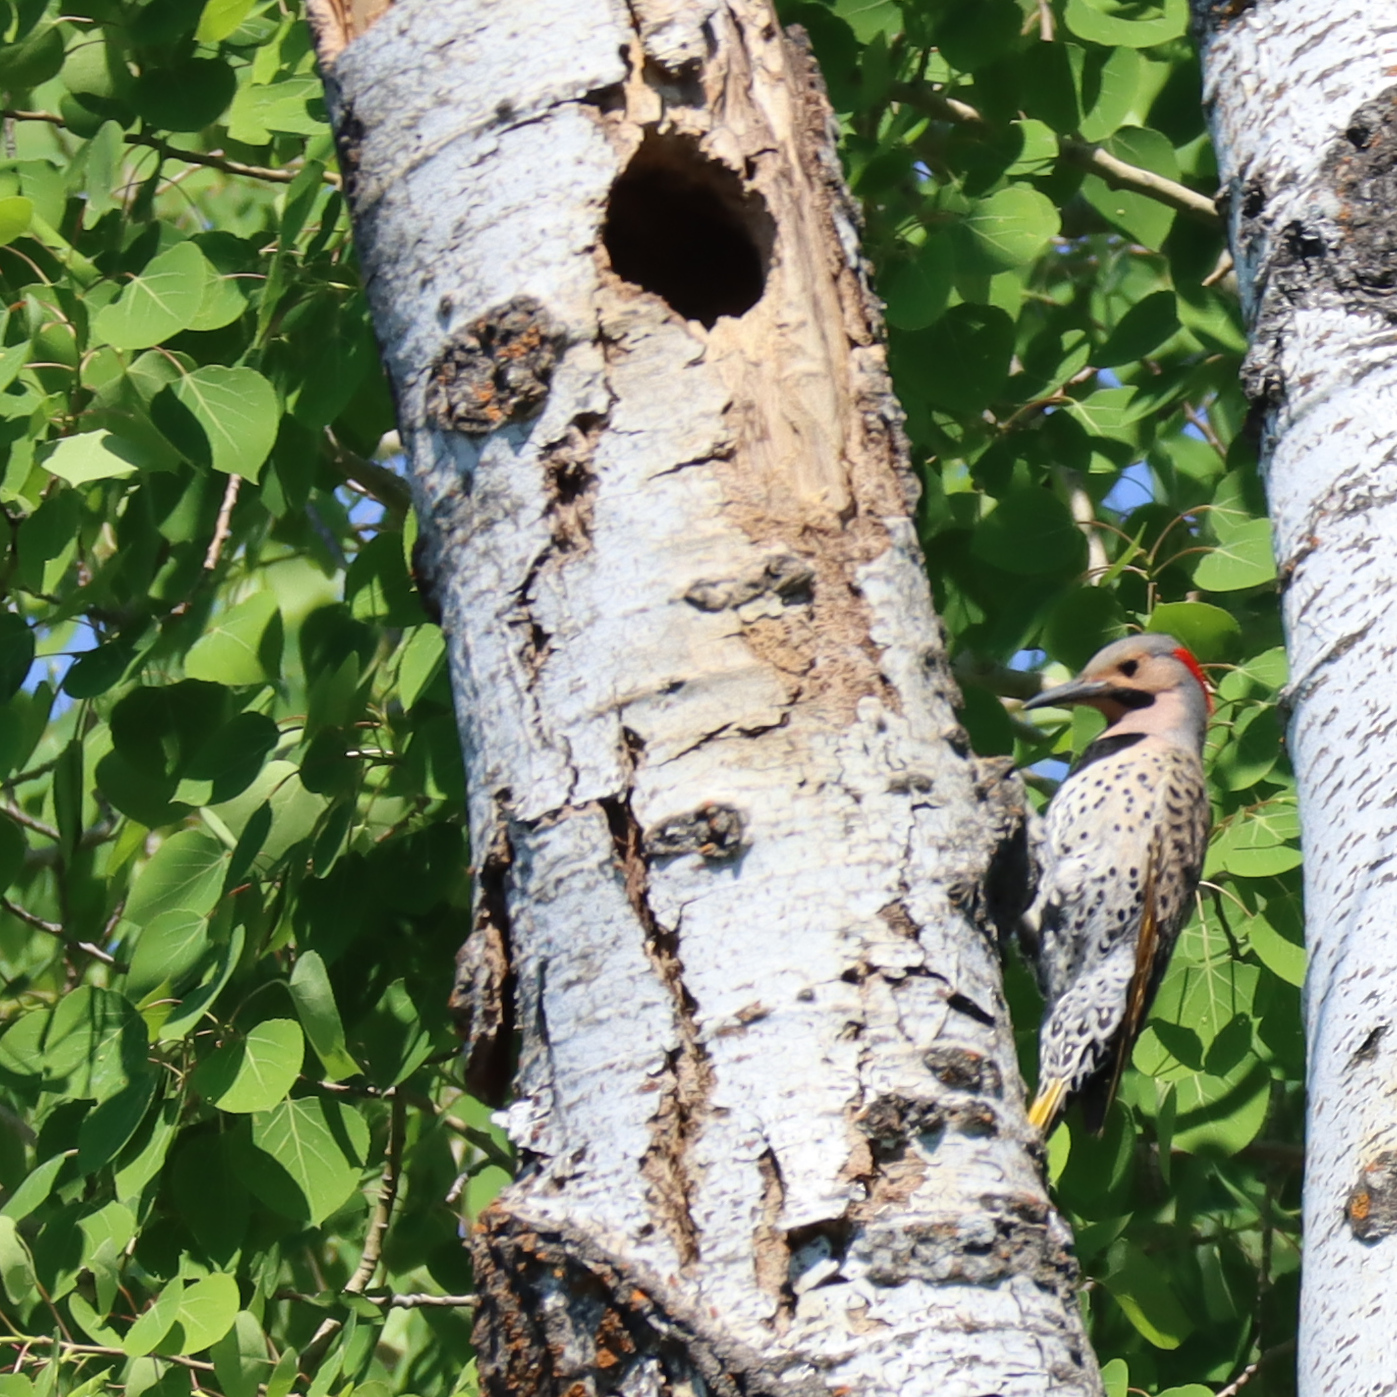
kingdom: Animalia
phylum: Chordata
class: Aves
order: Piciformes
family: Picidae
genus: Colaptes
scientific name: Colaptes auratus
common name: Northern flicker
